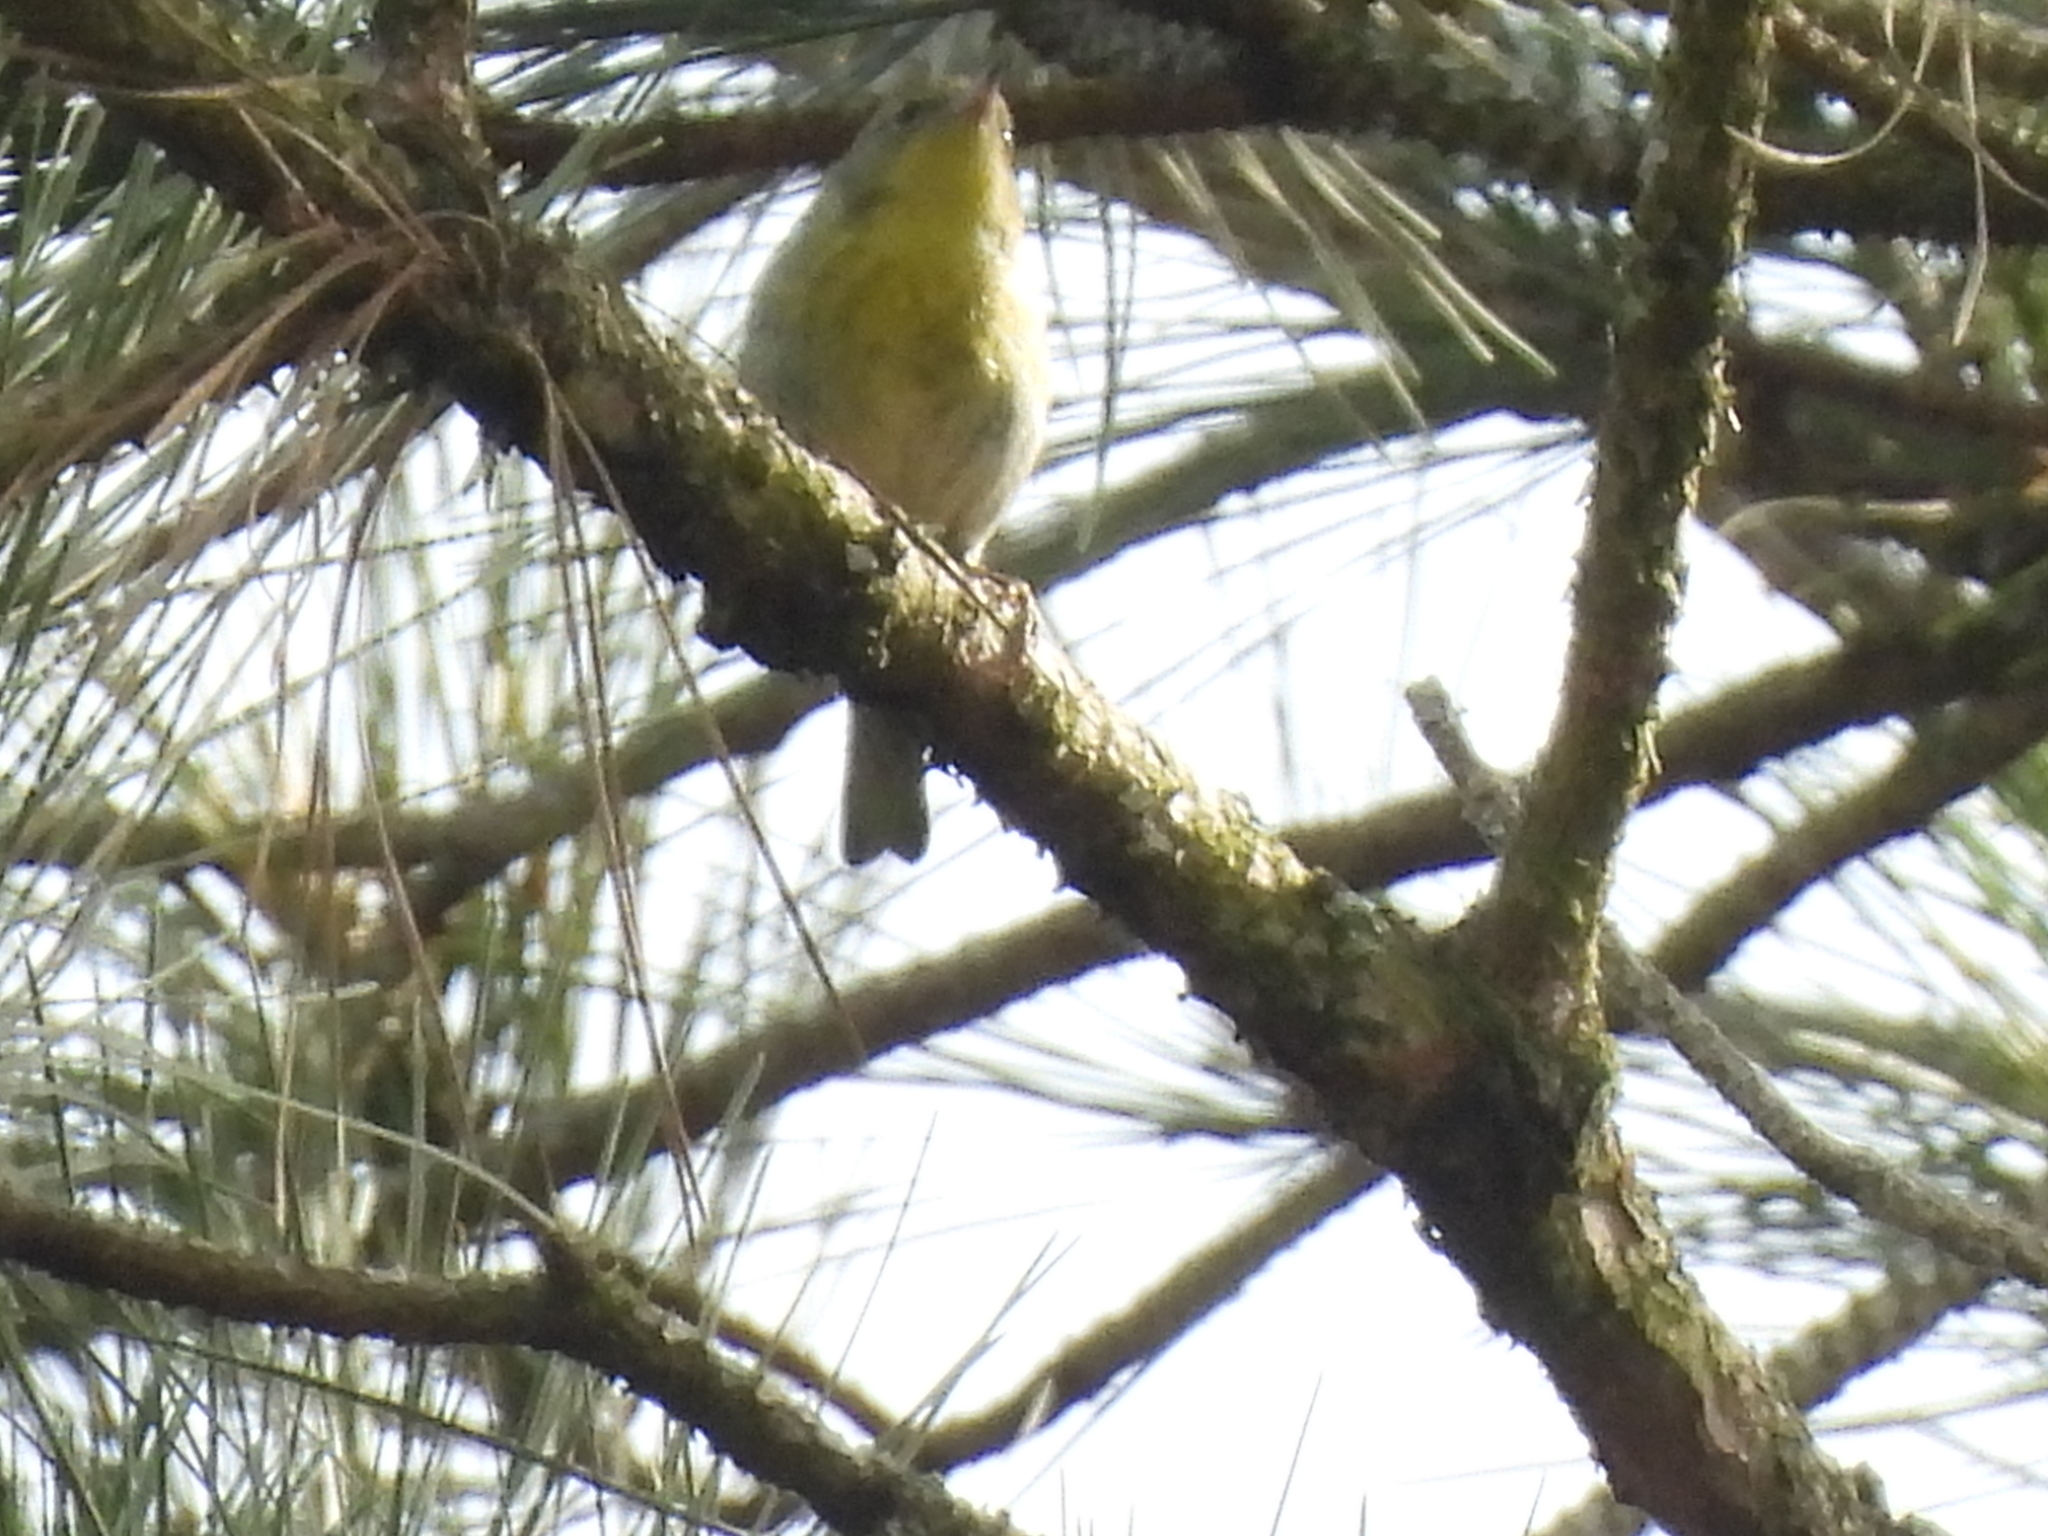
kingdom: Animalia
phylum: Chordata
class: Aves
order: Passeriformes
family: Parulidae
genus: Setophaga
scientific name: Setophaga pinus
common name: Pine warbler
